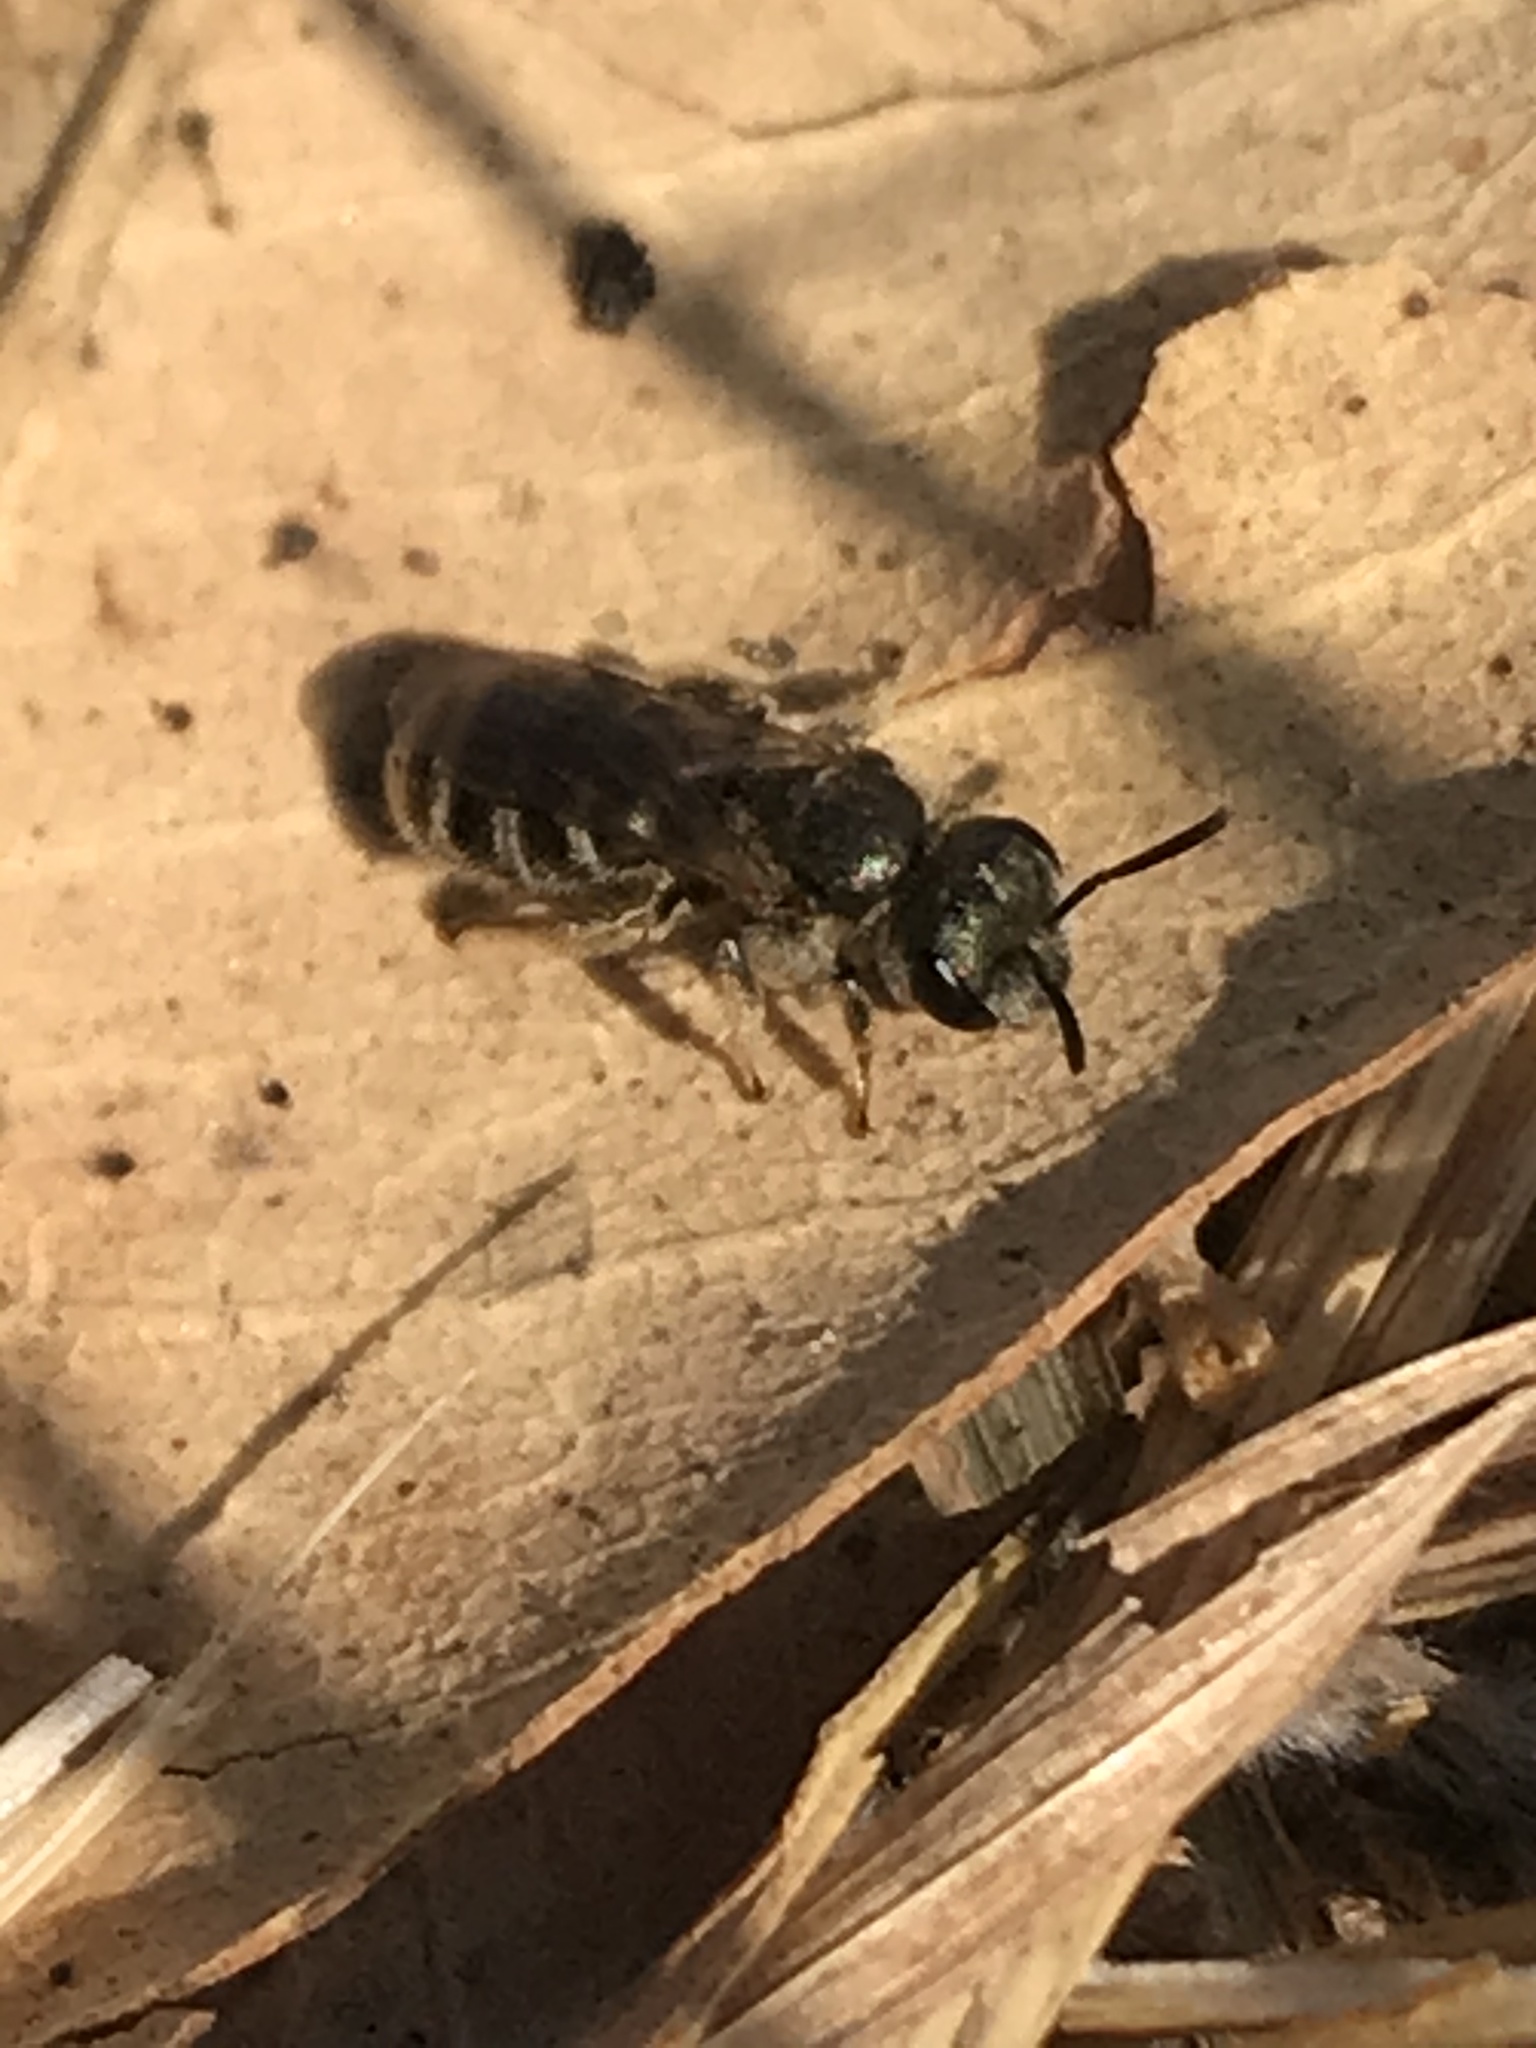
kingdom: Animalia
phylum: Arthropoda
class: Insecta
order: Hymenoptera
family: Halictidae
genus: Halictus
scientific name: Halictus tripartitus
